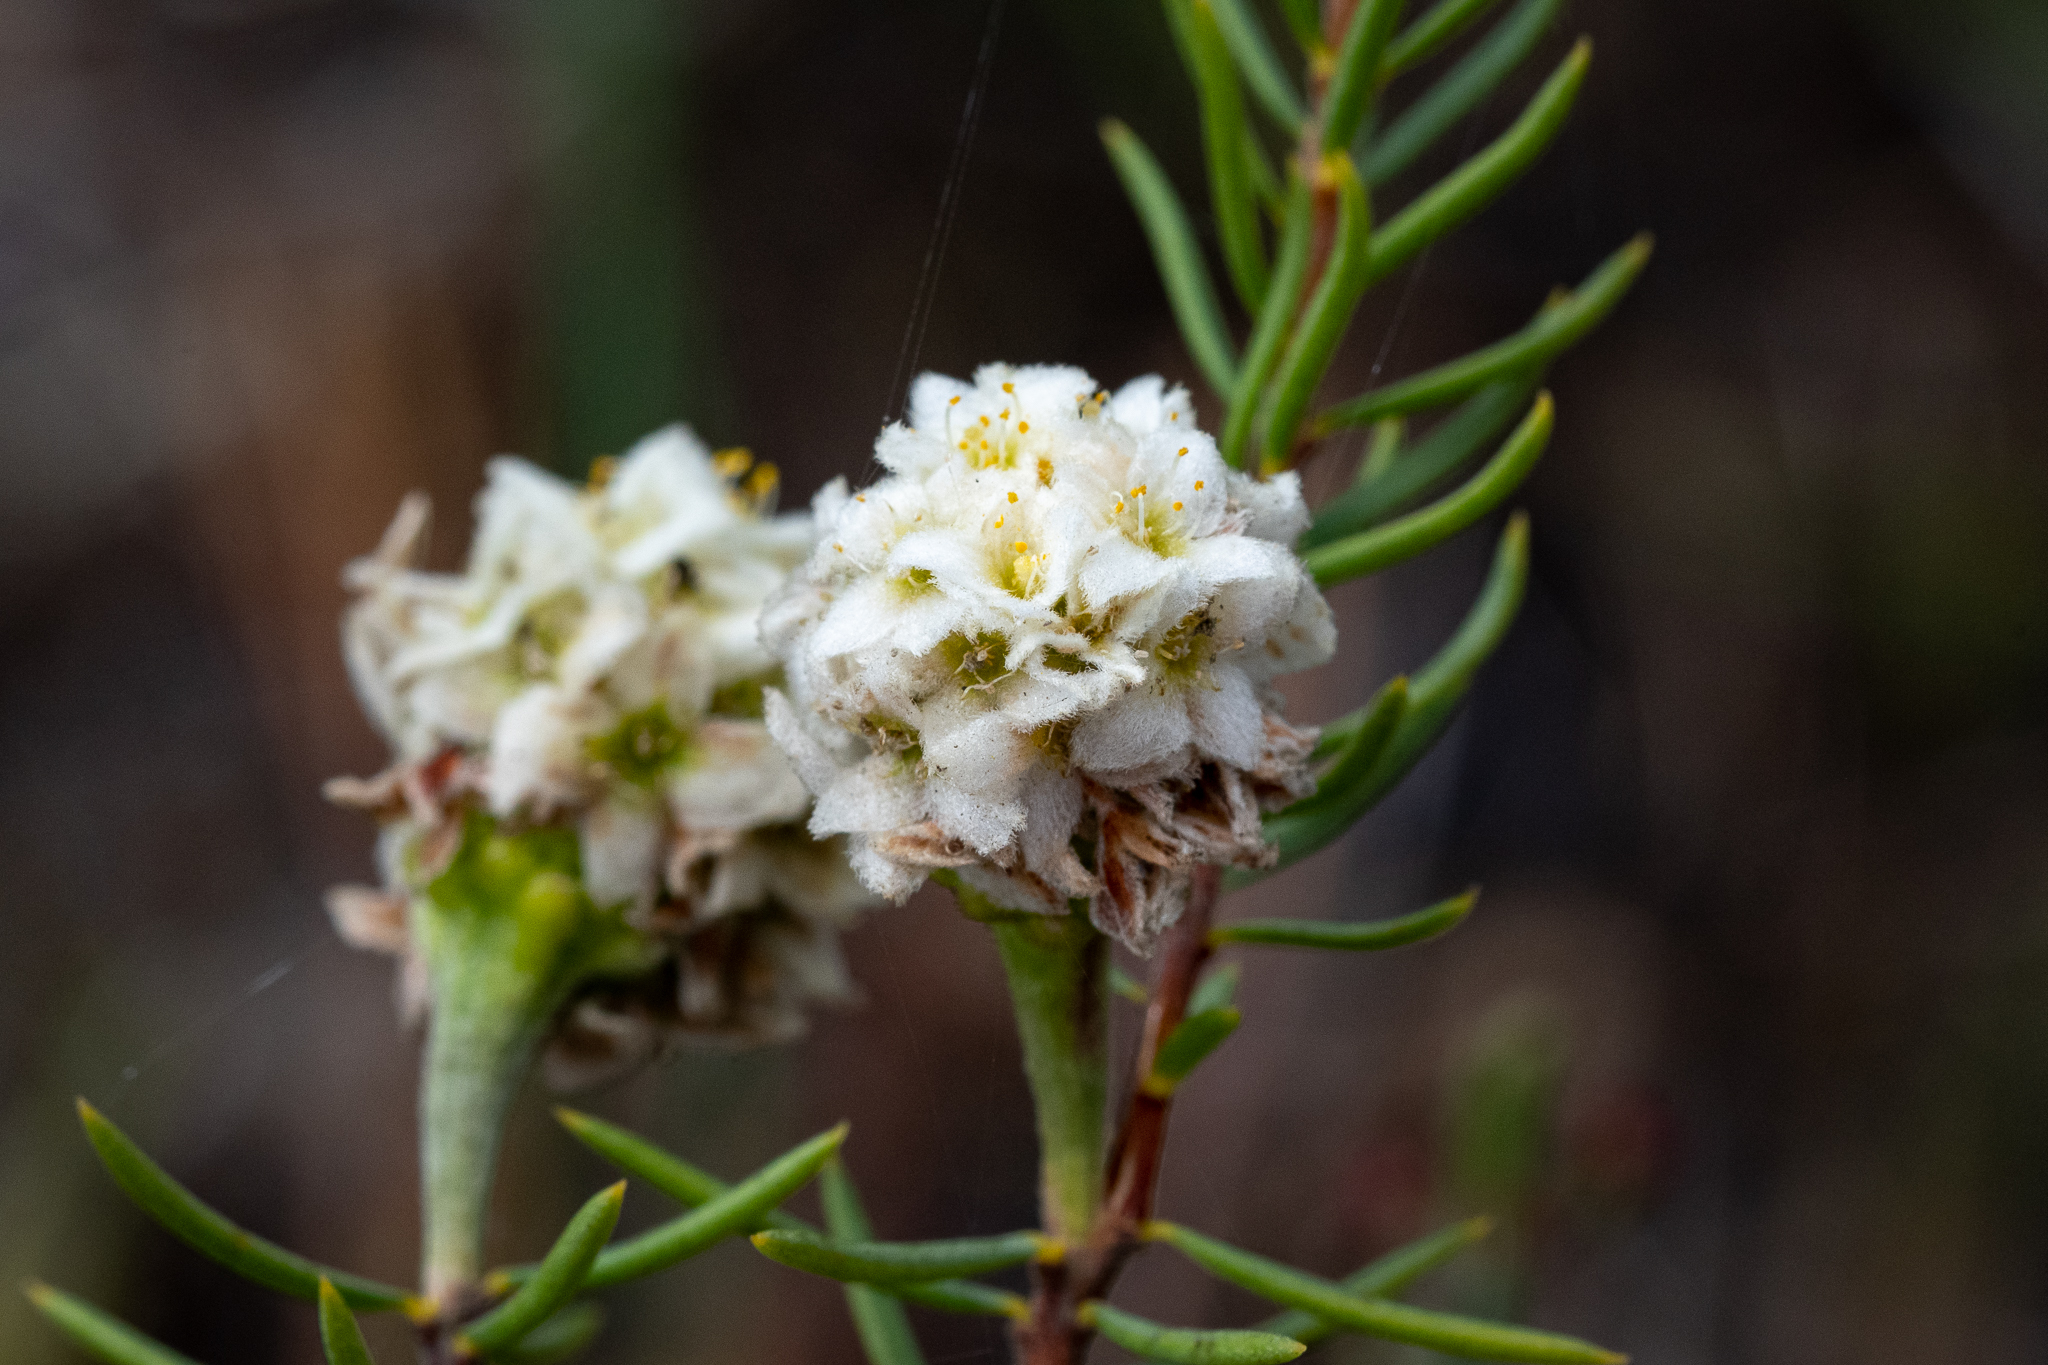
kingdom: Plantae
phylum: Tracheophyta
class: Magnoliopsida
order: Malvales
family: Thymelaeaceae
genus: Lachnaea
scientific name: Lachnaea densiflora
